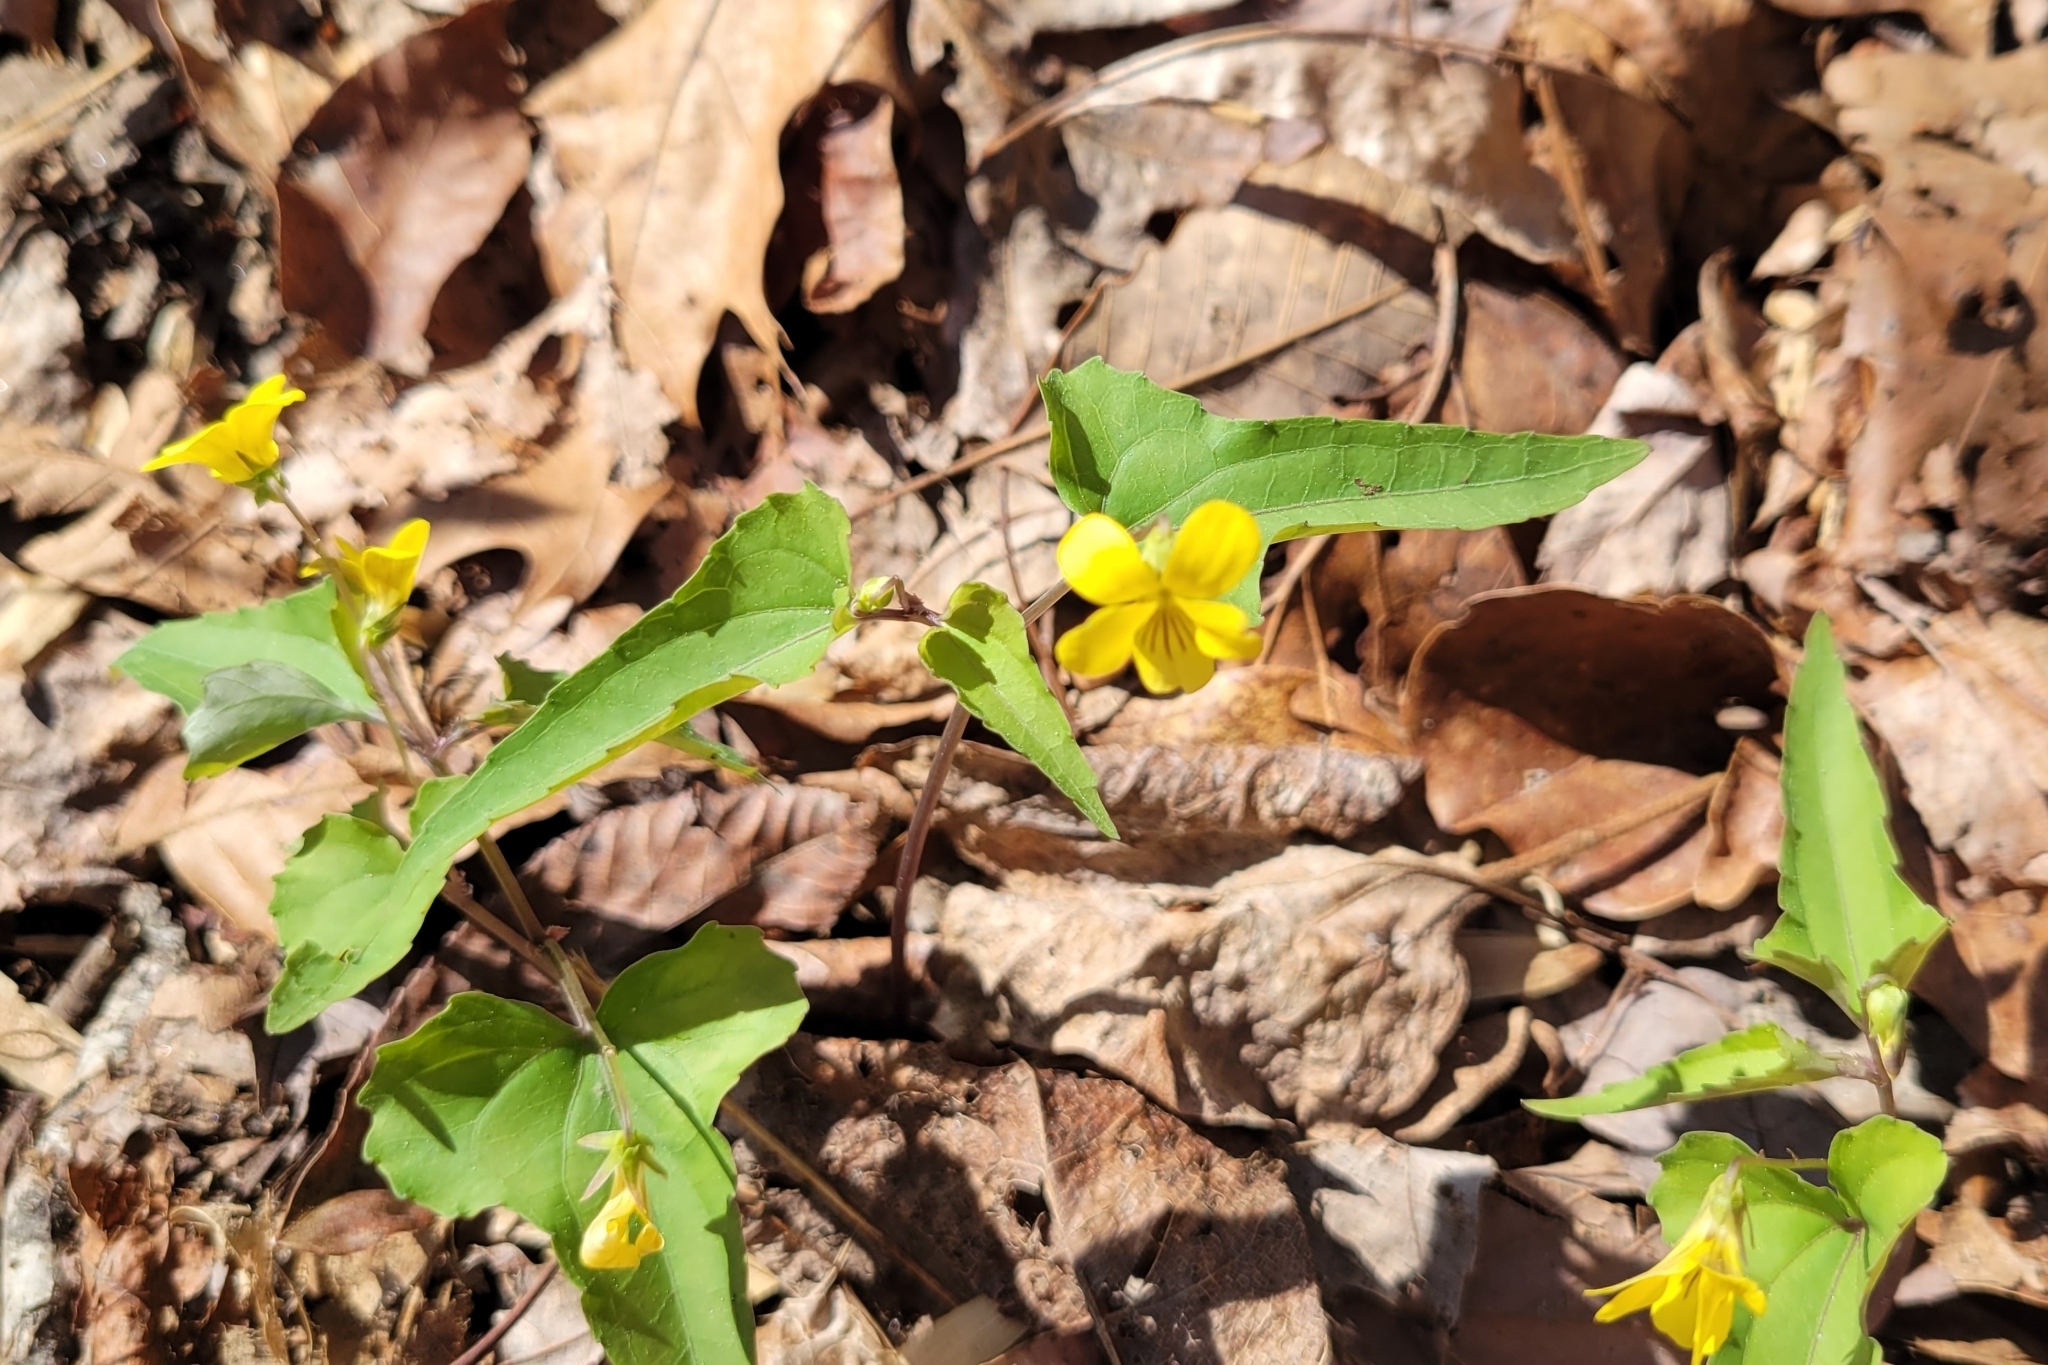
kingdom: Plantae
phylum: Tracheophyta
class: Magnoliopsida
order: Malpighiales
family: Violaceae
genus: Viola
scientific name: Viola hastata
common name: Spear-leaf violet
